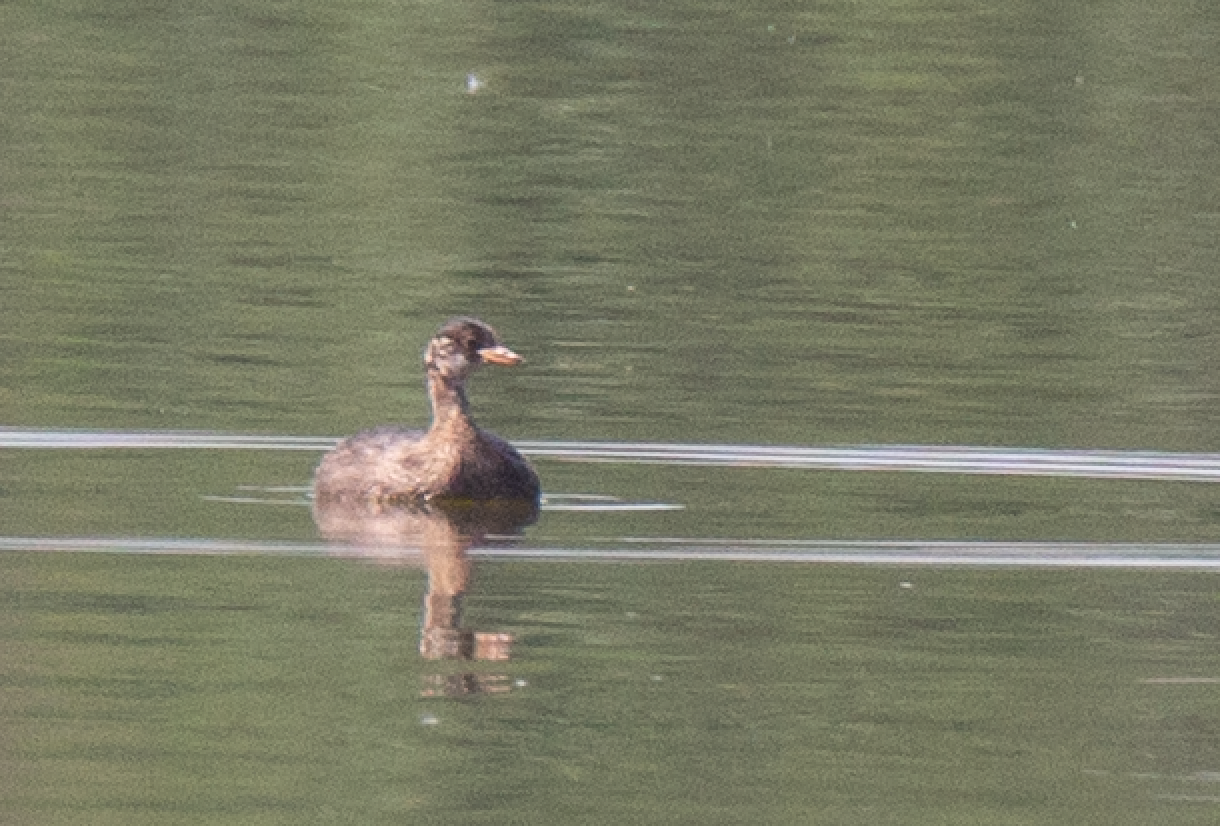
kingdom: Animalia
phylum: Chordata
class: Aves
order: Podicipediformes
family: Podicipedidae
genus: Tachybaptus
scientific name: Tachybaptus ruficollis
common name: Little grebe
